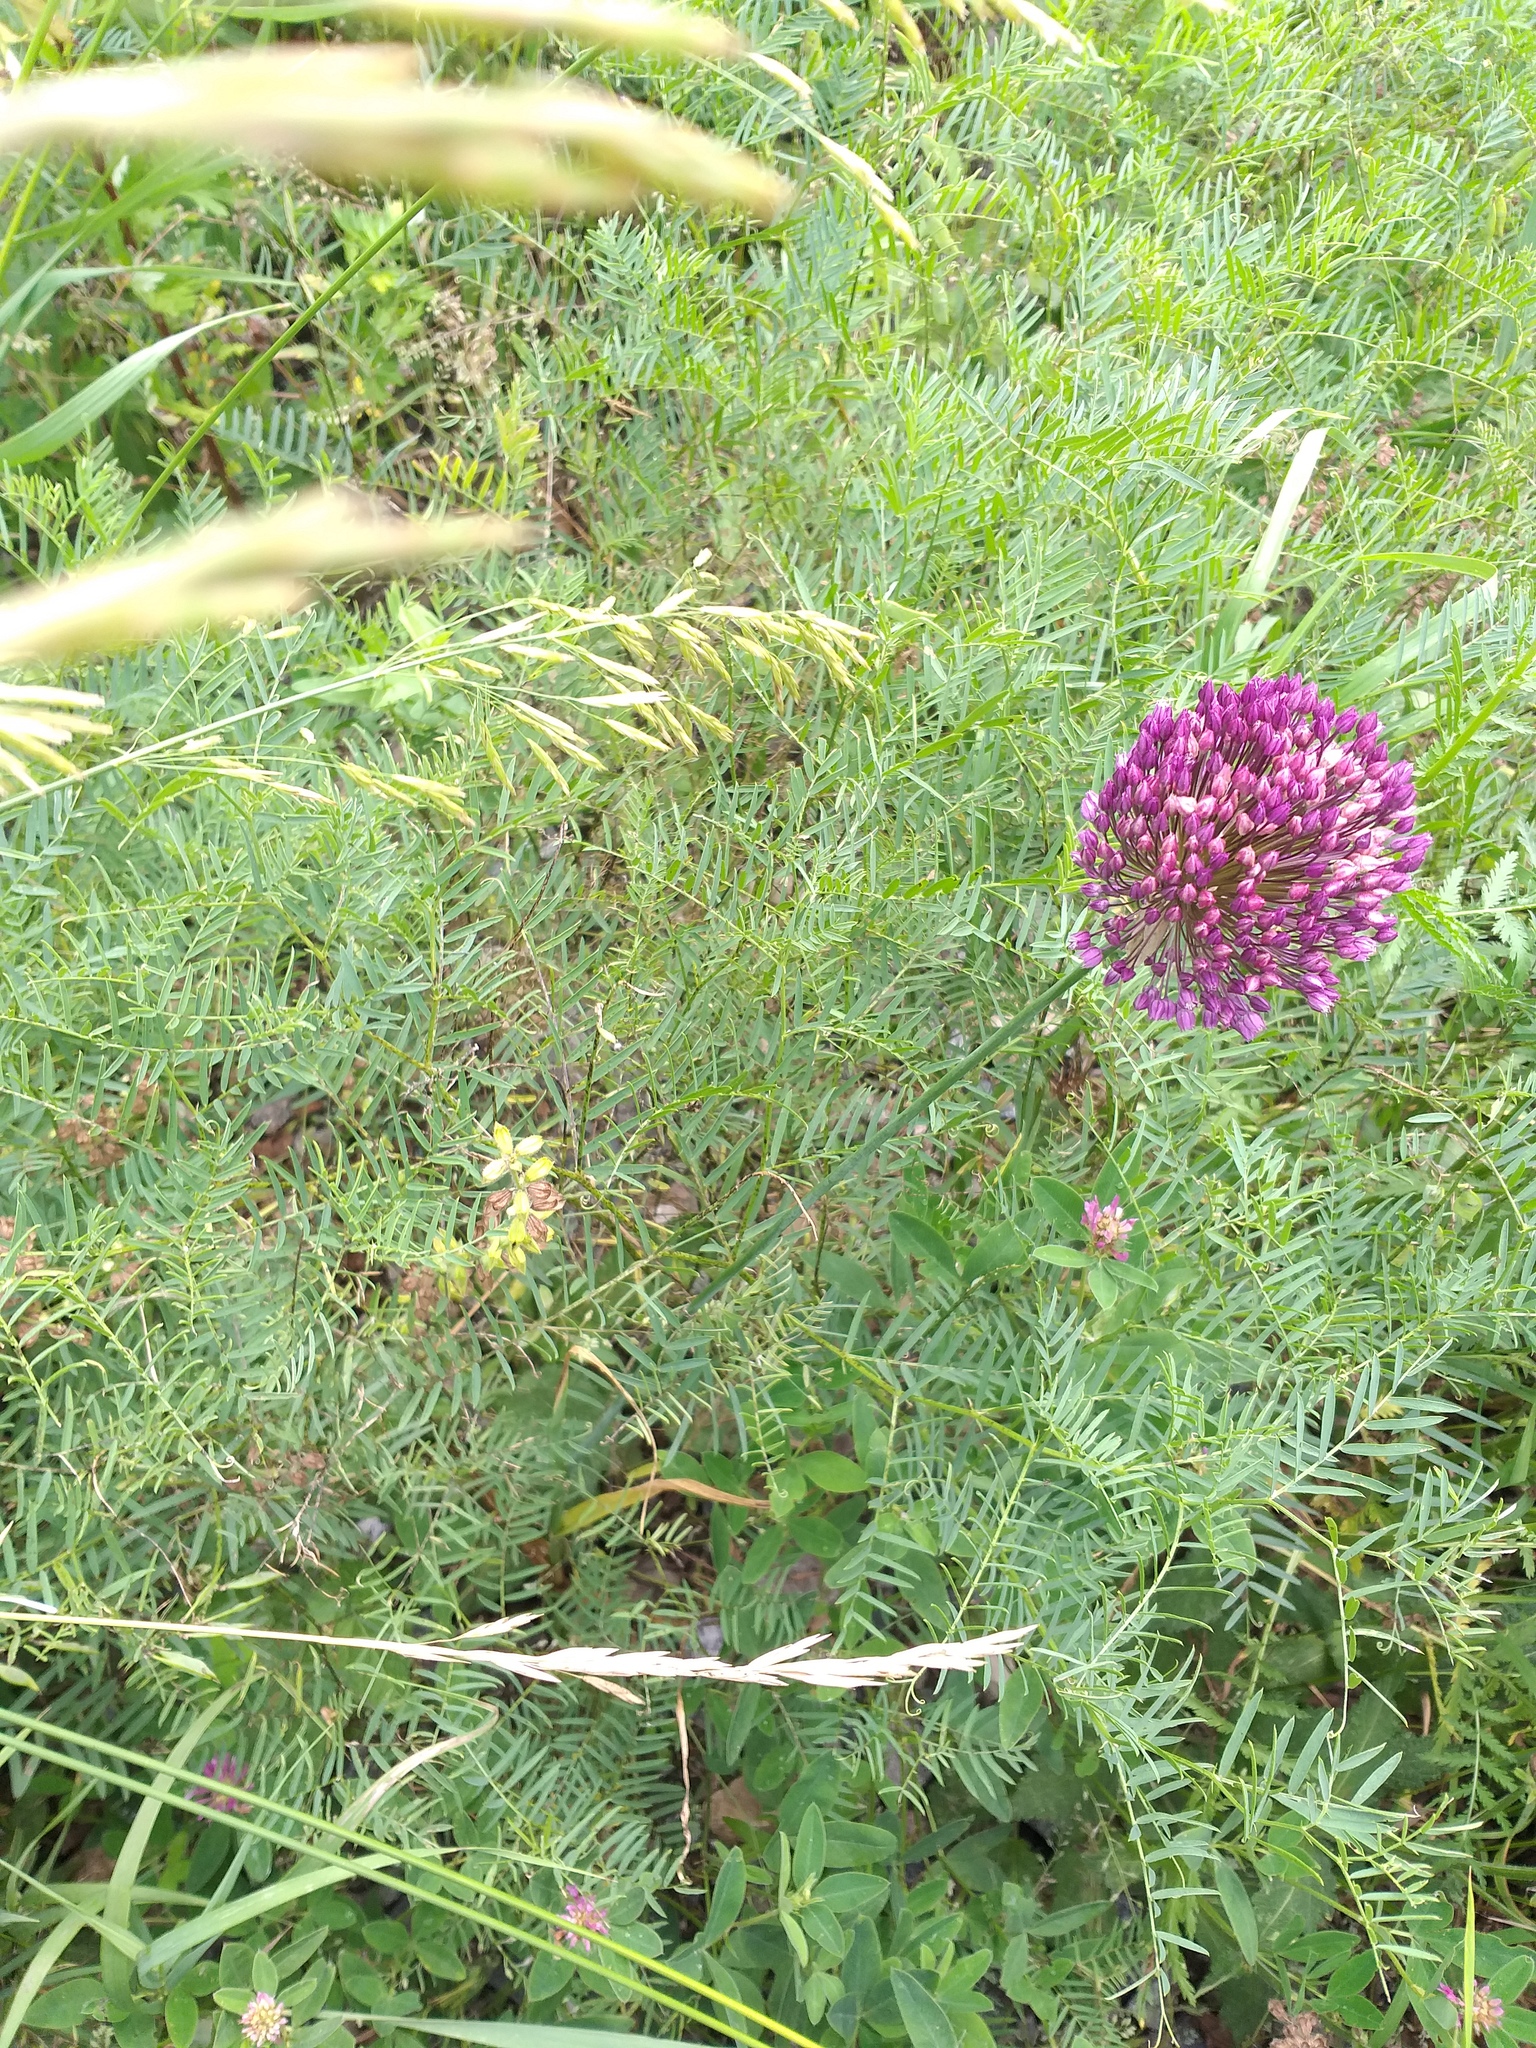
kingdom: Plantae
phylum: Tracheophyta
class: Liliopsida
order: Asparagales
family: Amaryllidaceae
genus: Allium
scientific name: Allium rotundum
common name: Sand leek
